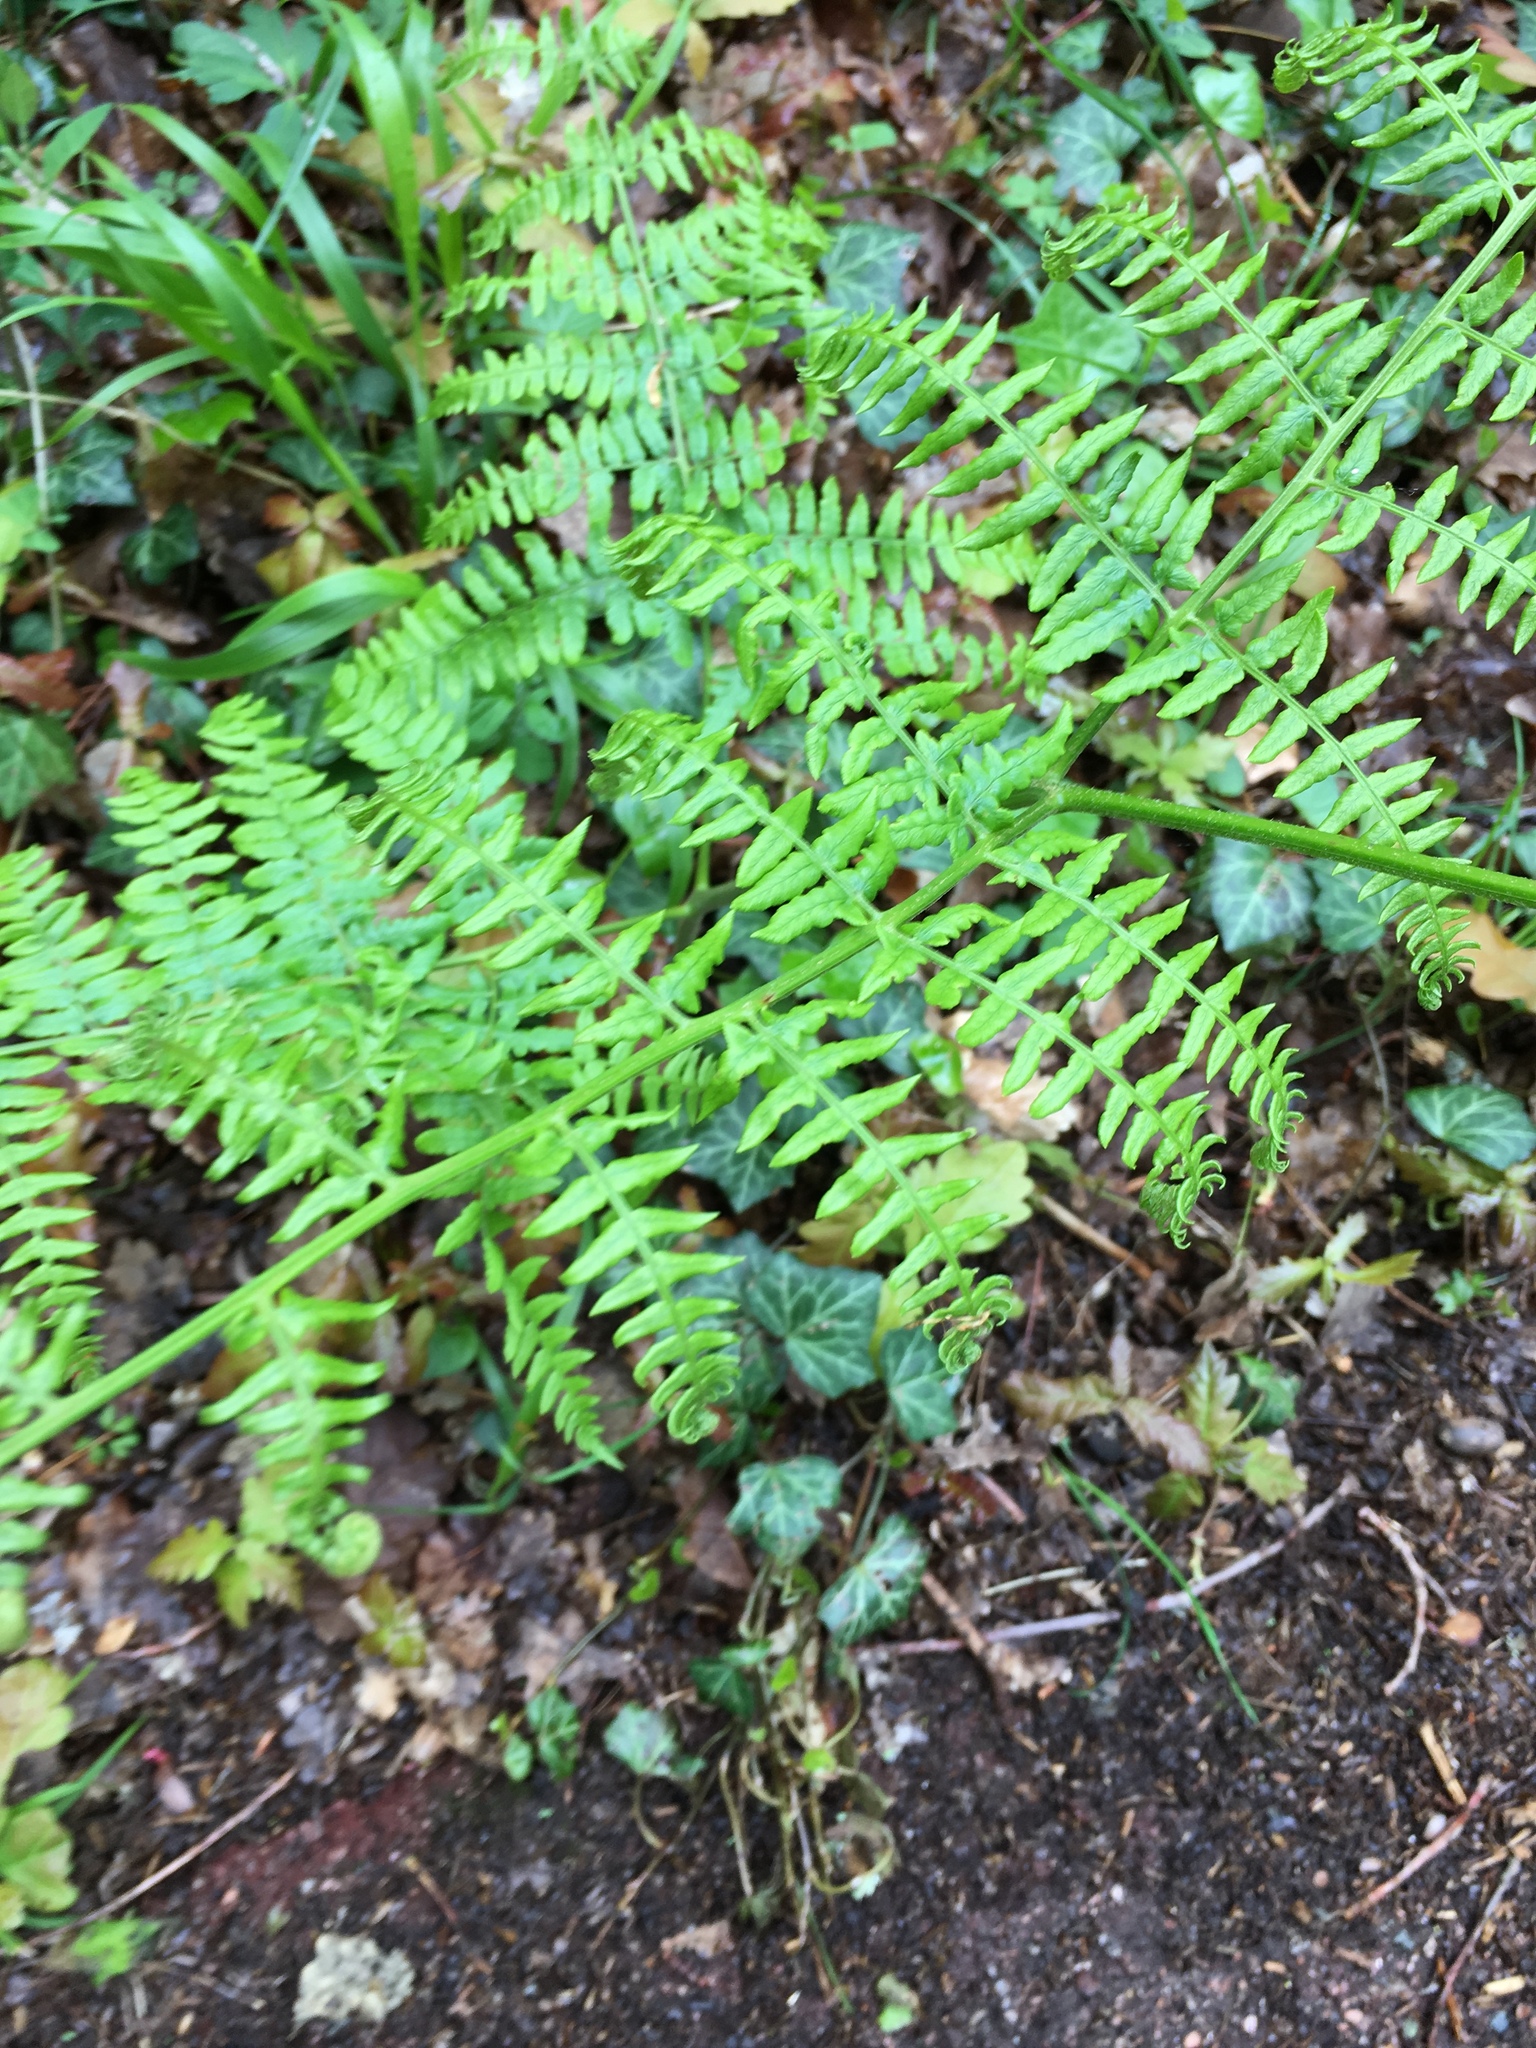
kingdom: Plantae
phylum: Tracheophyta
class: Polypodiopsida
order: Polypodiales
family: Dennstaedtiaceae
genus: Pteridium
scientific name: Pteridium aquilinum
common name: Bracken
